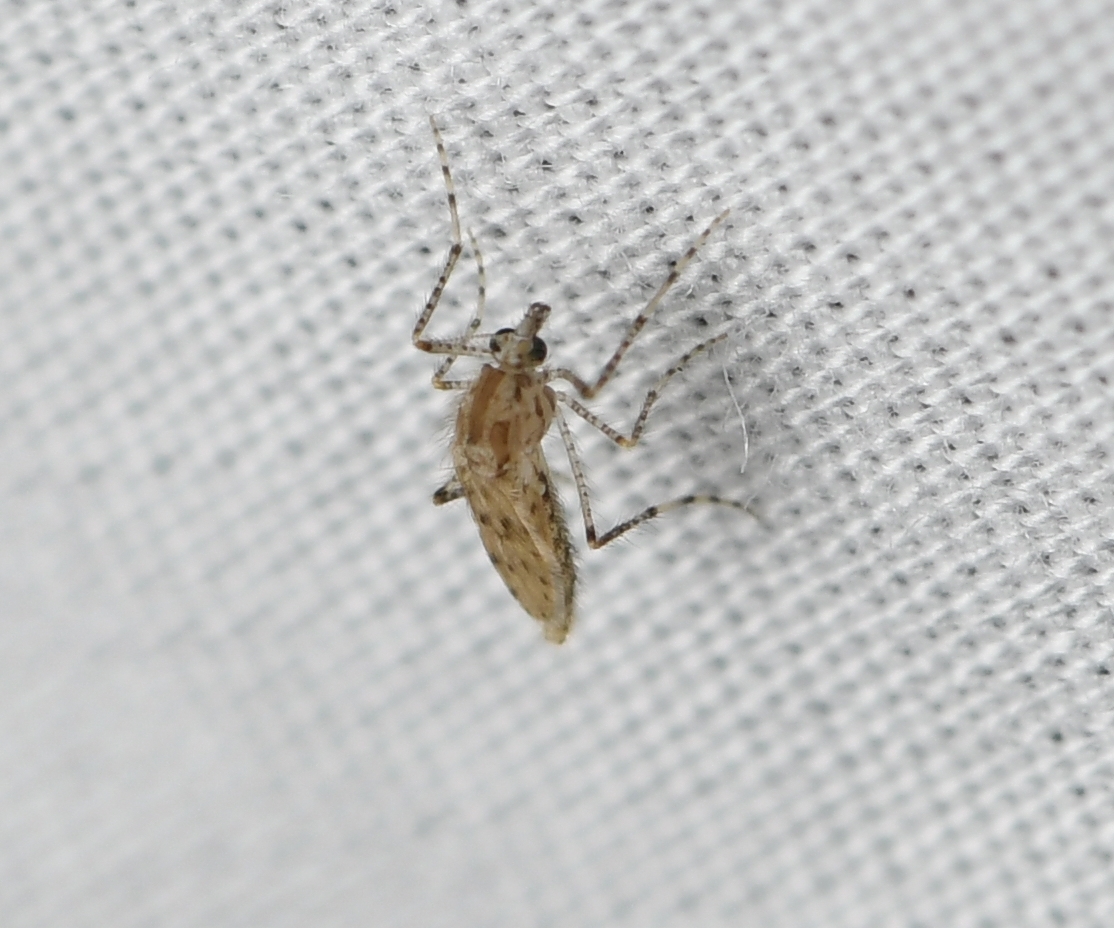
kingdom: Animalia
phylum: Arthropoda
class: Insecta
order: Diptera
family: Chaoboridae
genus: Chaoborus
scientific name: Chaoborus punctipennis
